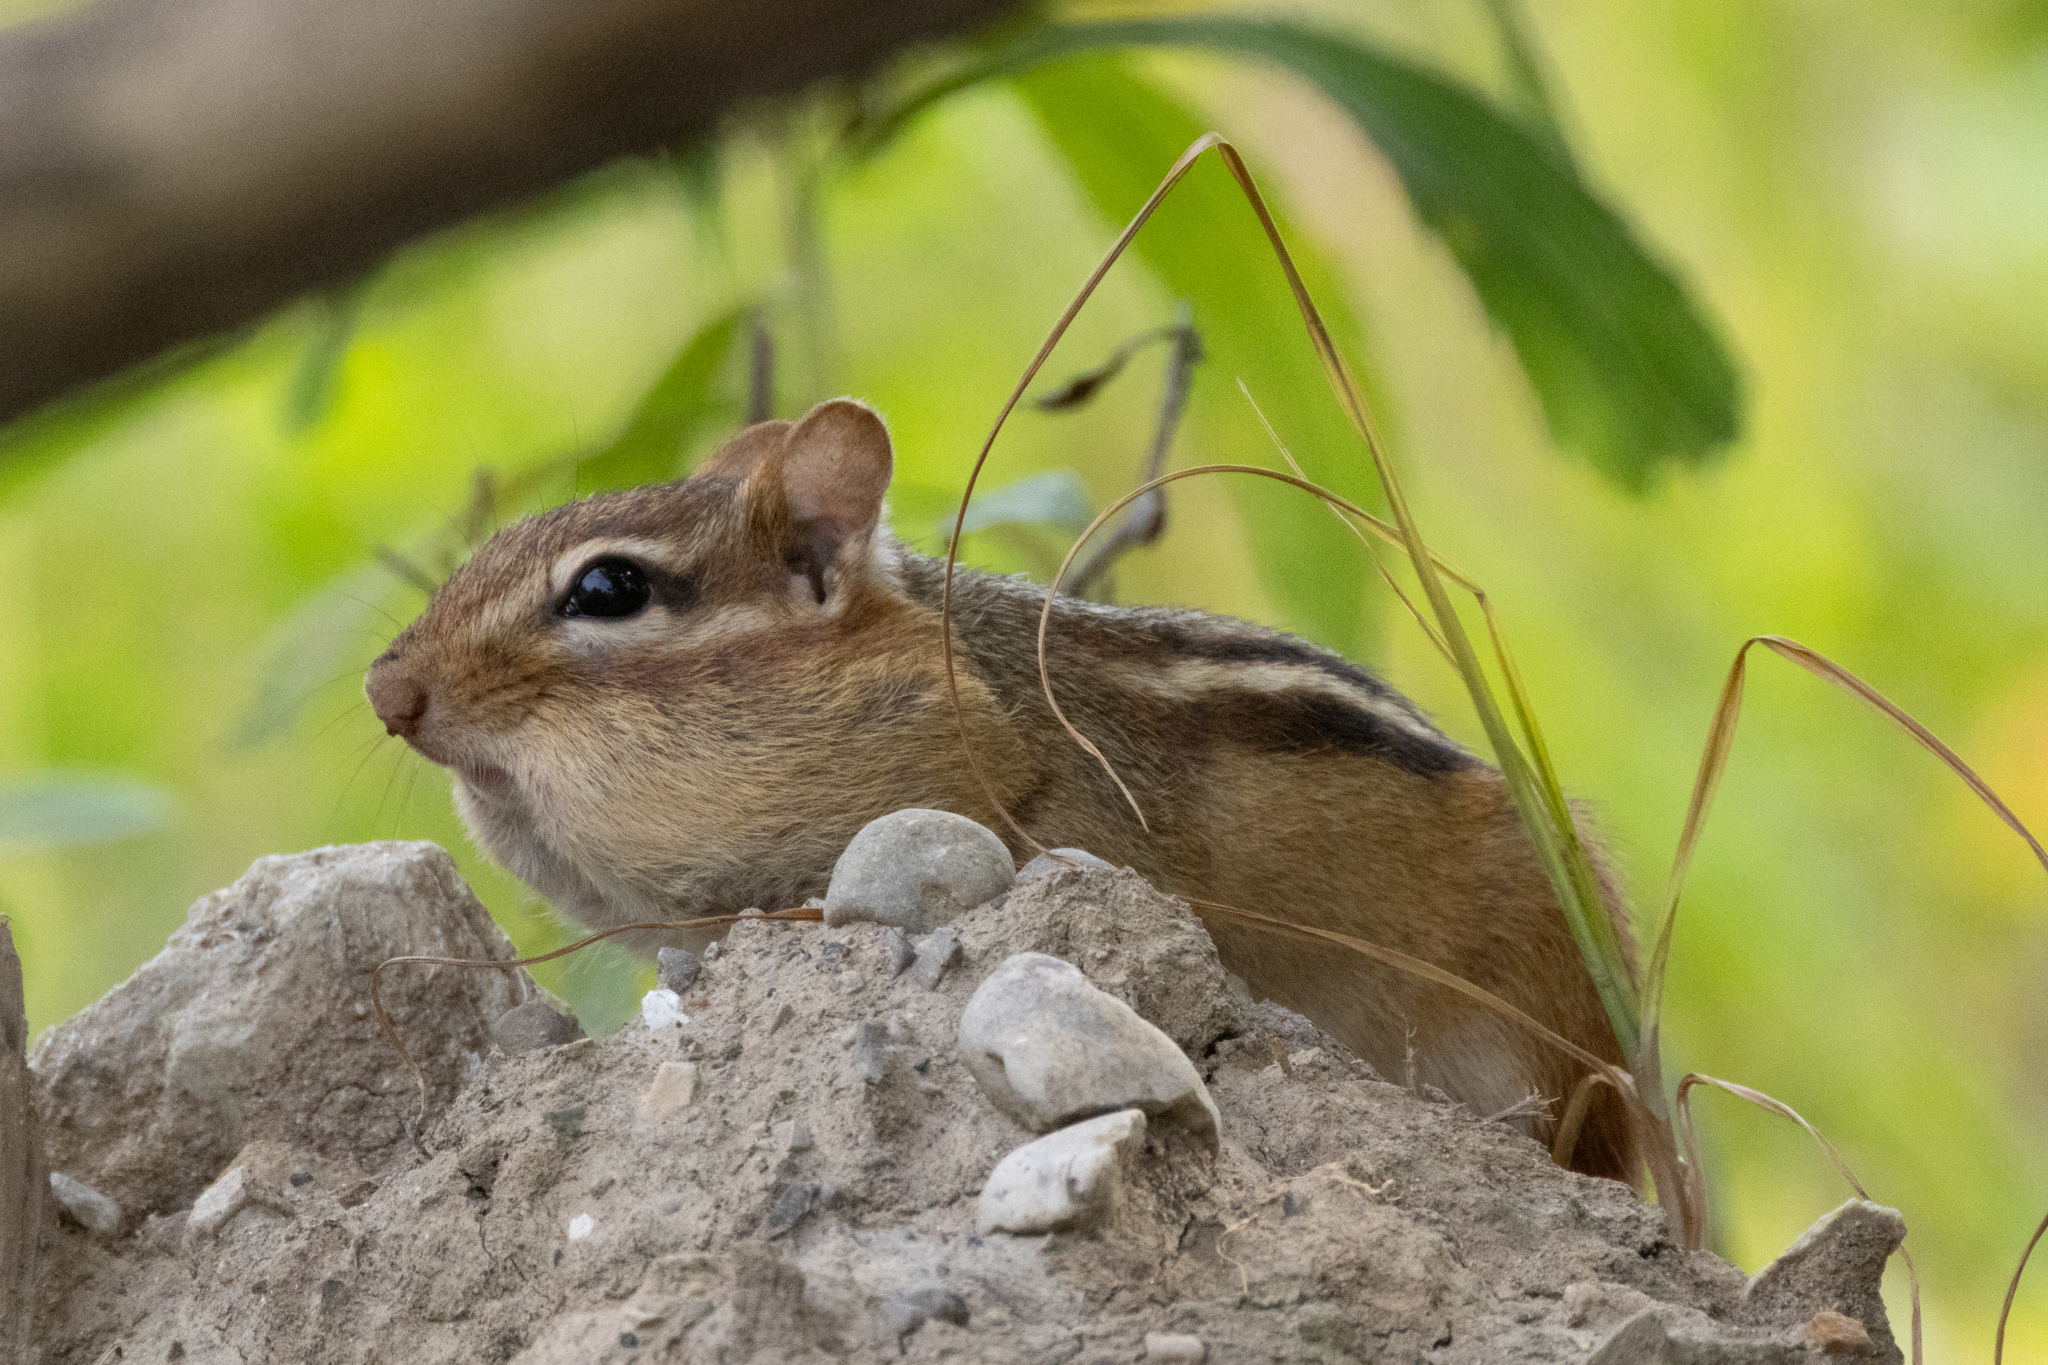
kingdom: Animalia
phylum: Chordata
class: Mammalia
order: Rodentia
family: Sciuridae
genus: Tamias
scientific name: Tamias striatus
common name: Eastern chipmunk
